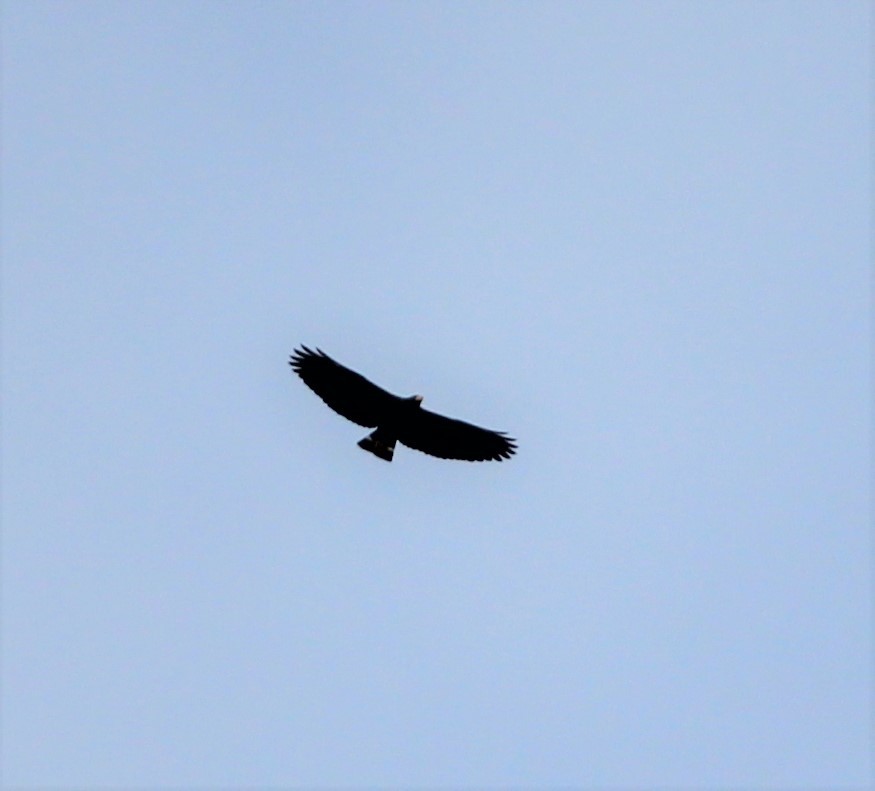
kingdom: Animalia
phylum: Chordata
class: Aves
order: Accipitriformes
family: Accipitridae
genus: Buteogallus
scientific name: Buteogallus anthracinus
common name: Common black hawk
